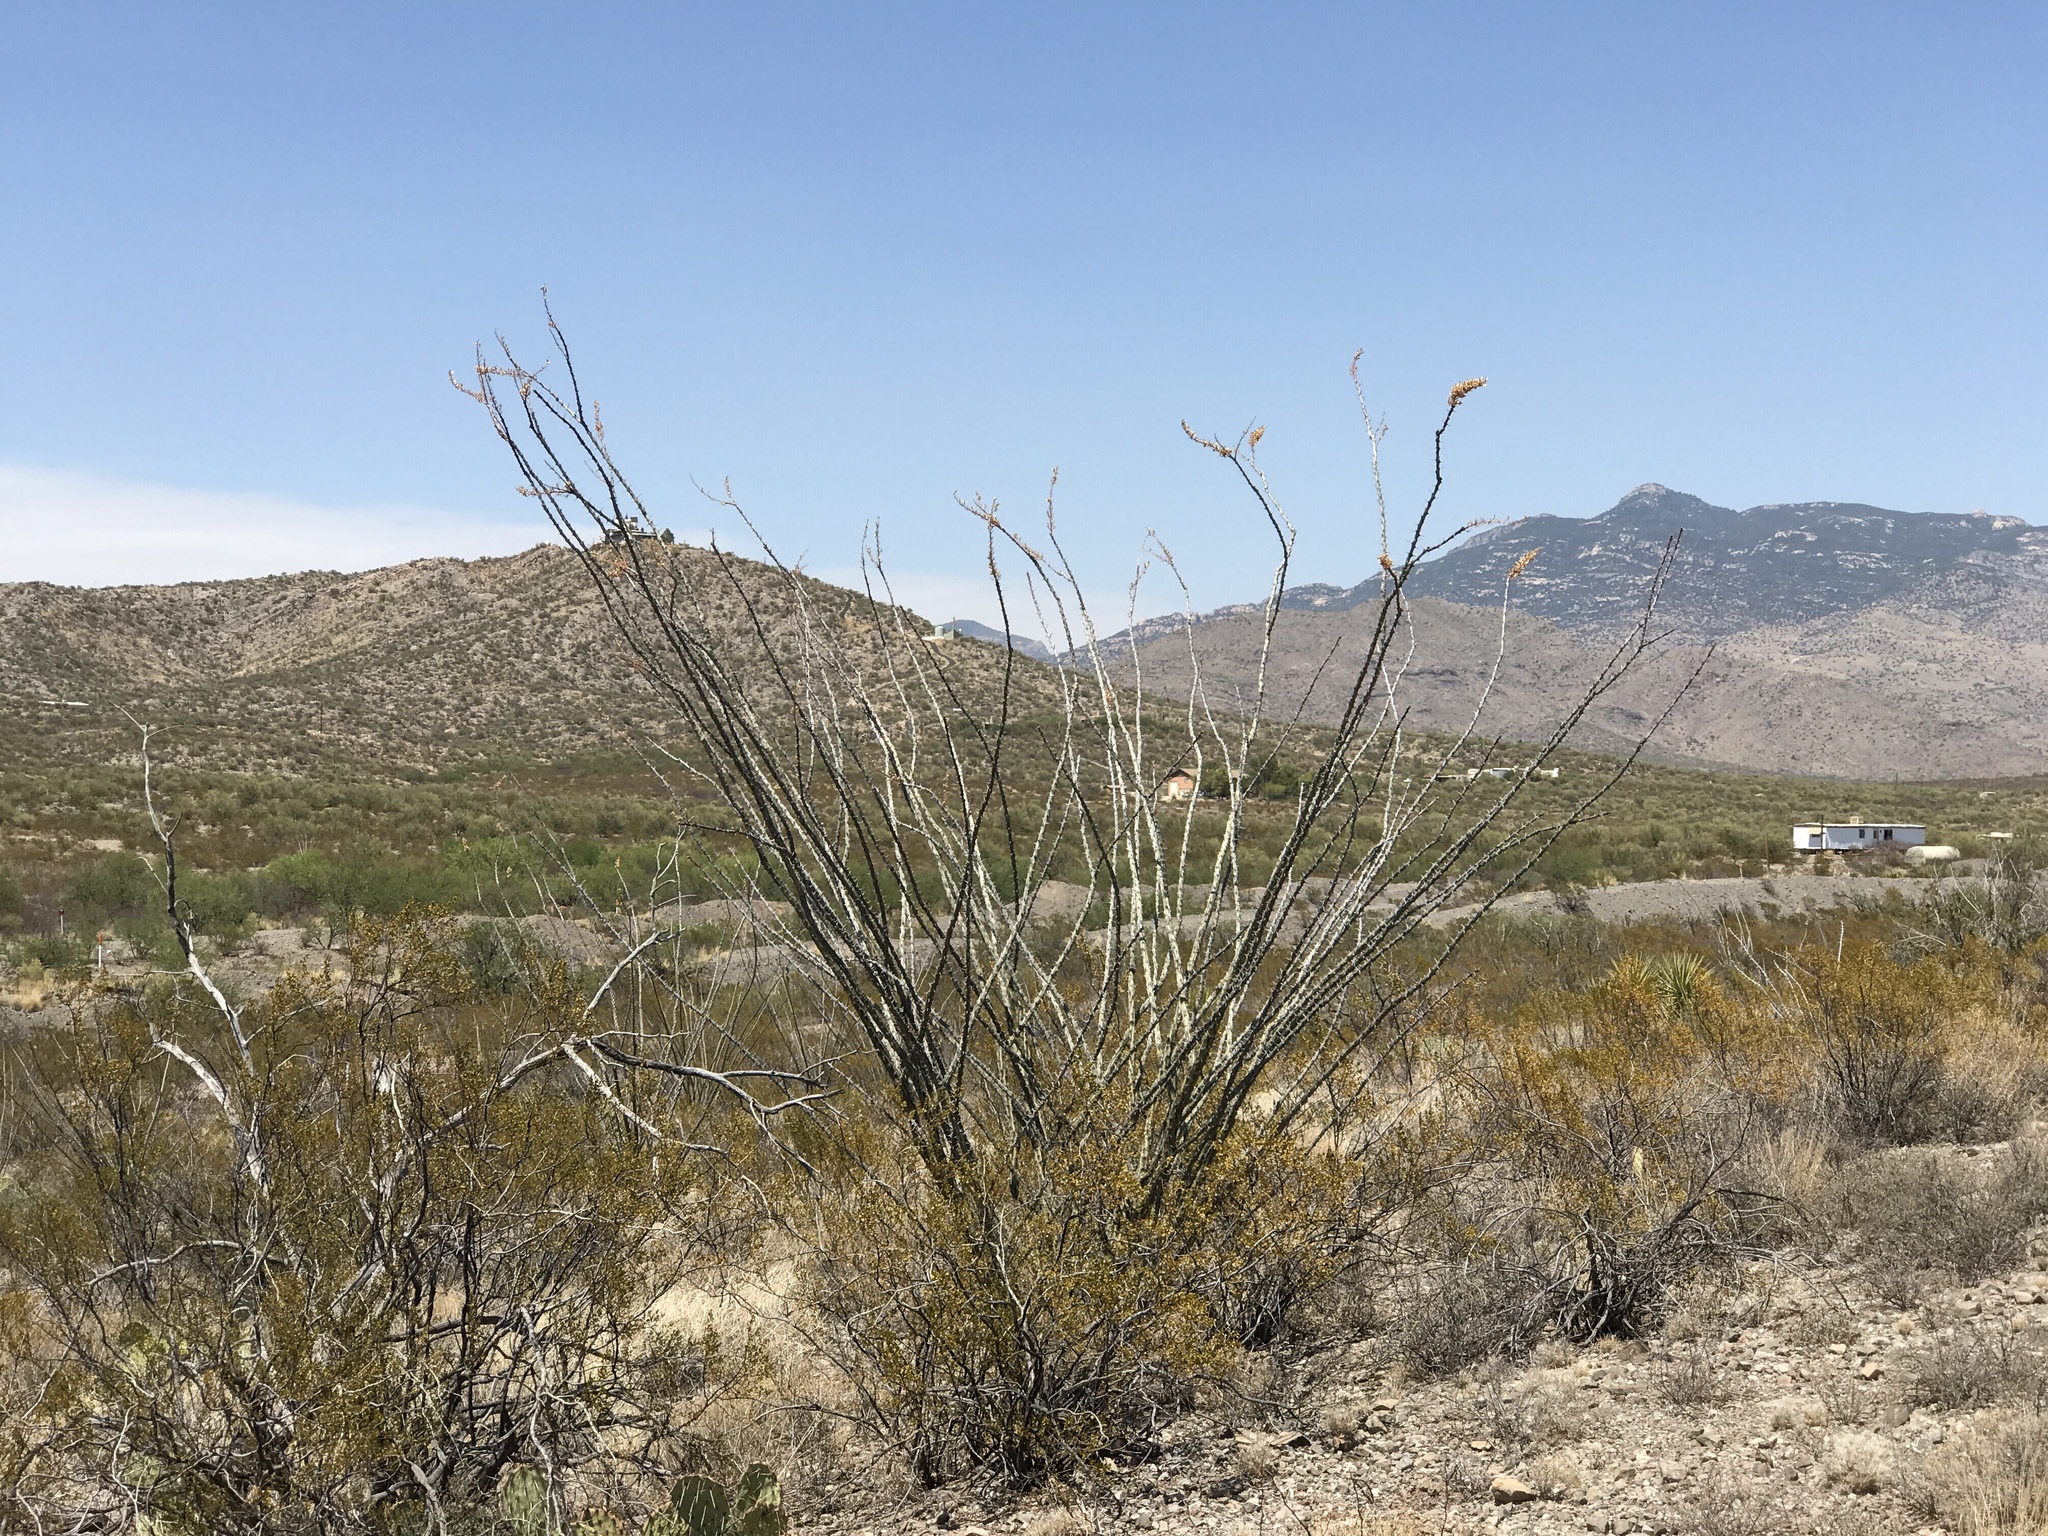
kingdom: Plantae
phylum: Tracheophyta
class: Magnoliopsida
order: Ericales
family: Fouquieriaceae
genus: Fouquieria
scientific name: Fouquieria splendens
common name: Vine-cactus
